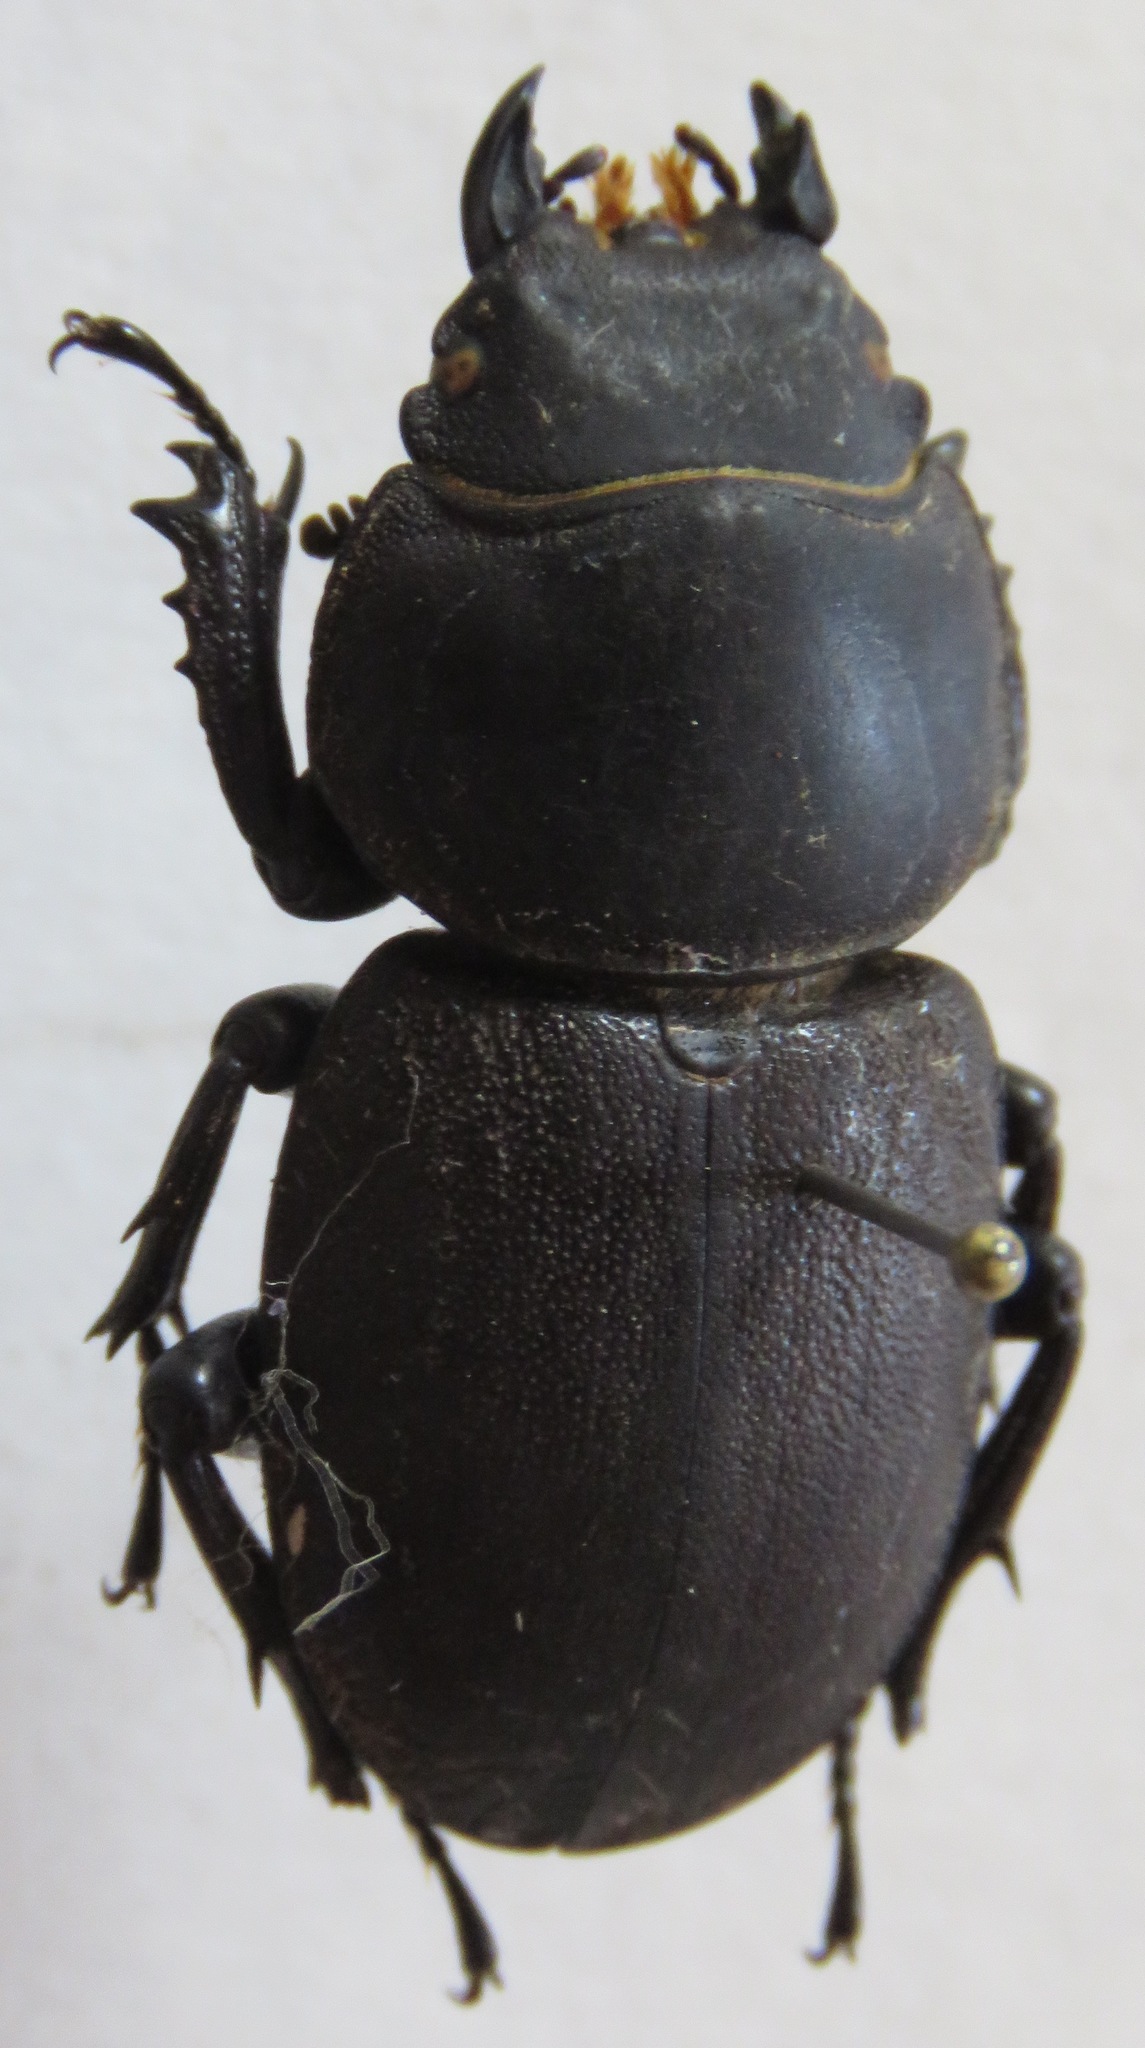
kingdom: Animalia
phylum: Arthropoda
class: Insecta
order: Coleoptera
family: Lucanidae
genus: Apterodorcus
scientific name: Apterodorcus bacchus
